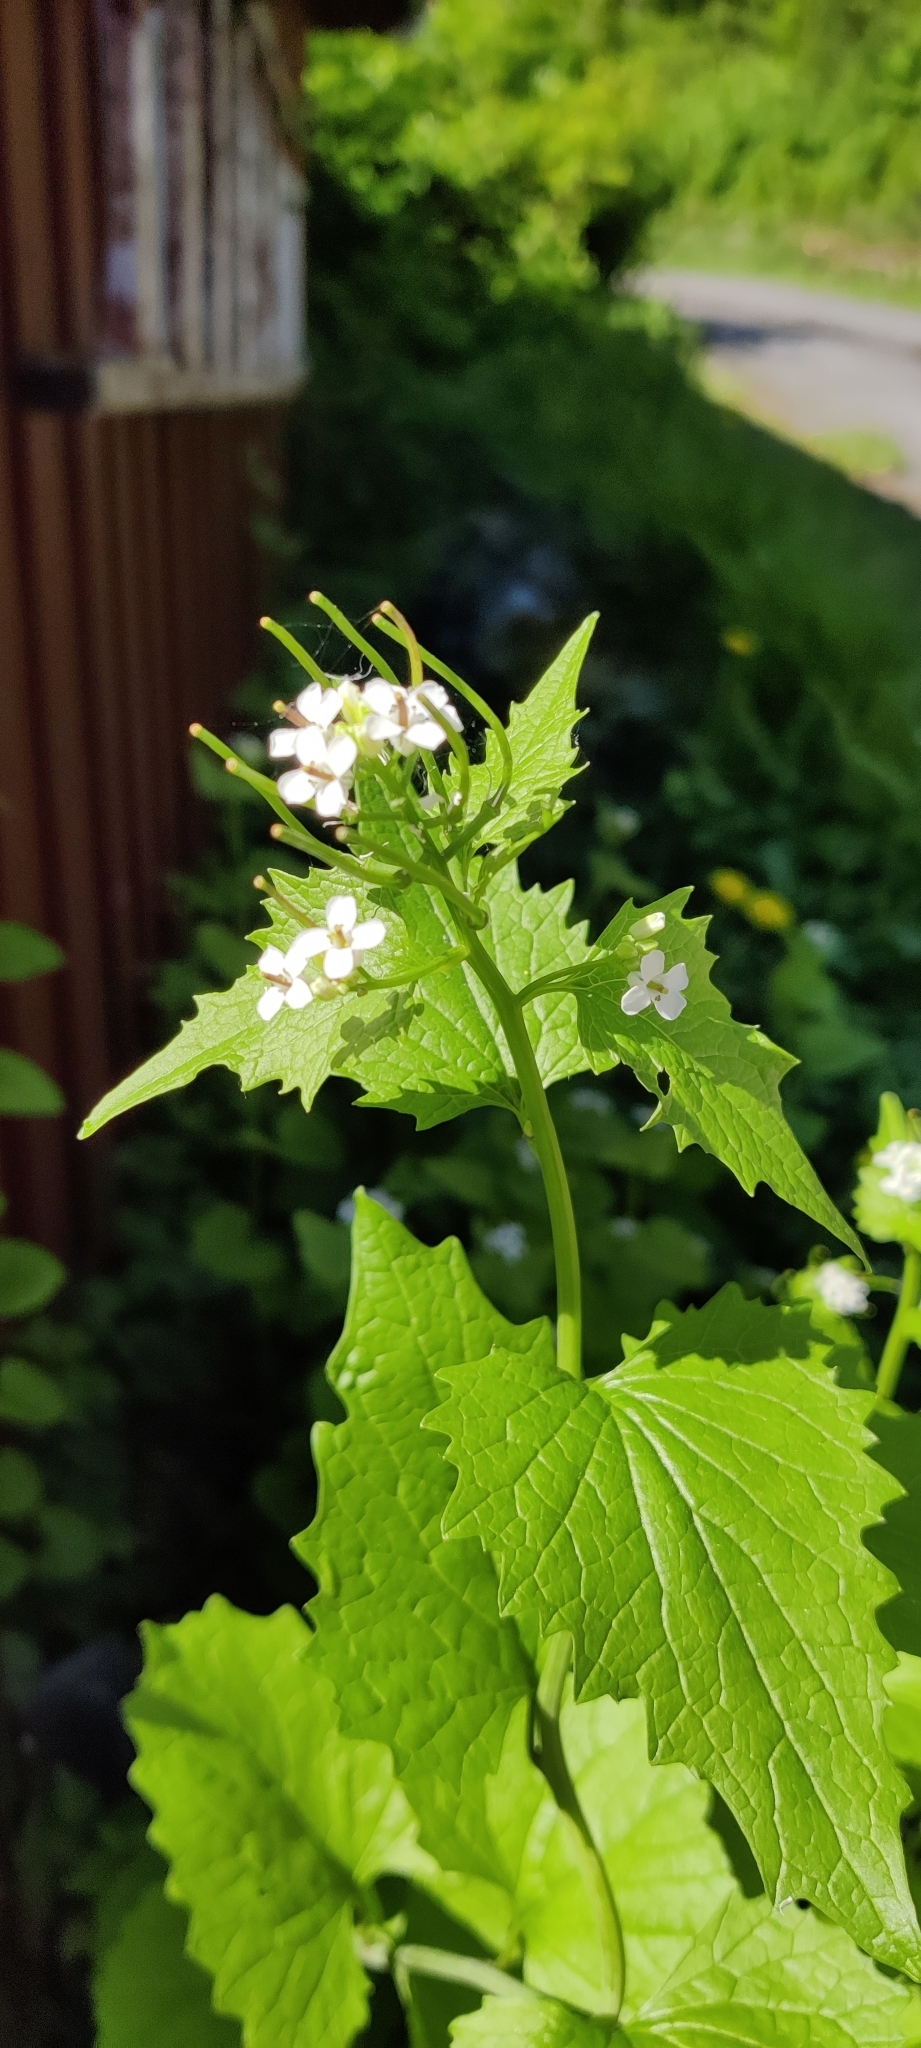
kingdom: Plantae
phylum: Tracheophyta
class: Magnoliopsida
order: Brassicales
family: Brassicaceae
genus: Alliaria
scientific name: Alliaria petiolata
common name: Garlic mustard
